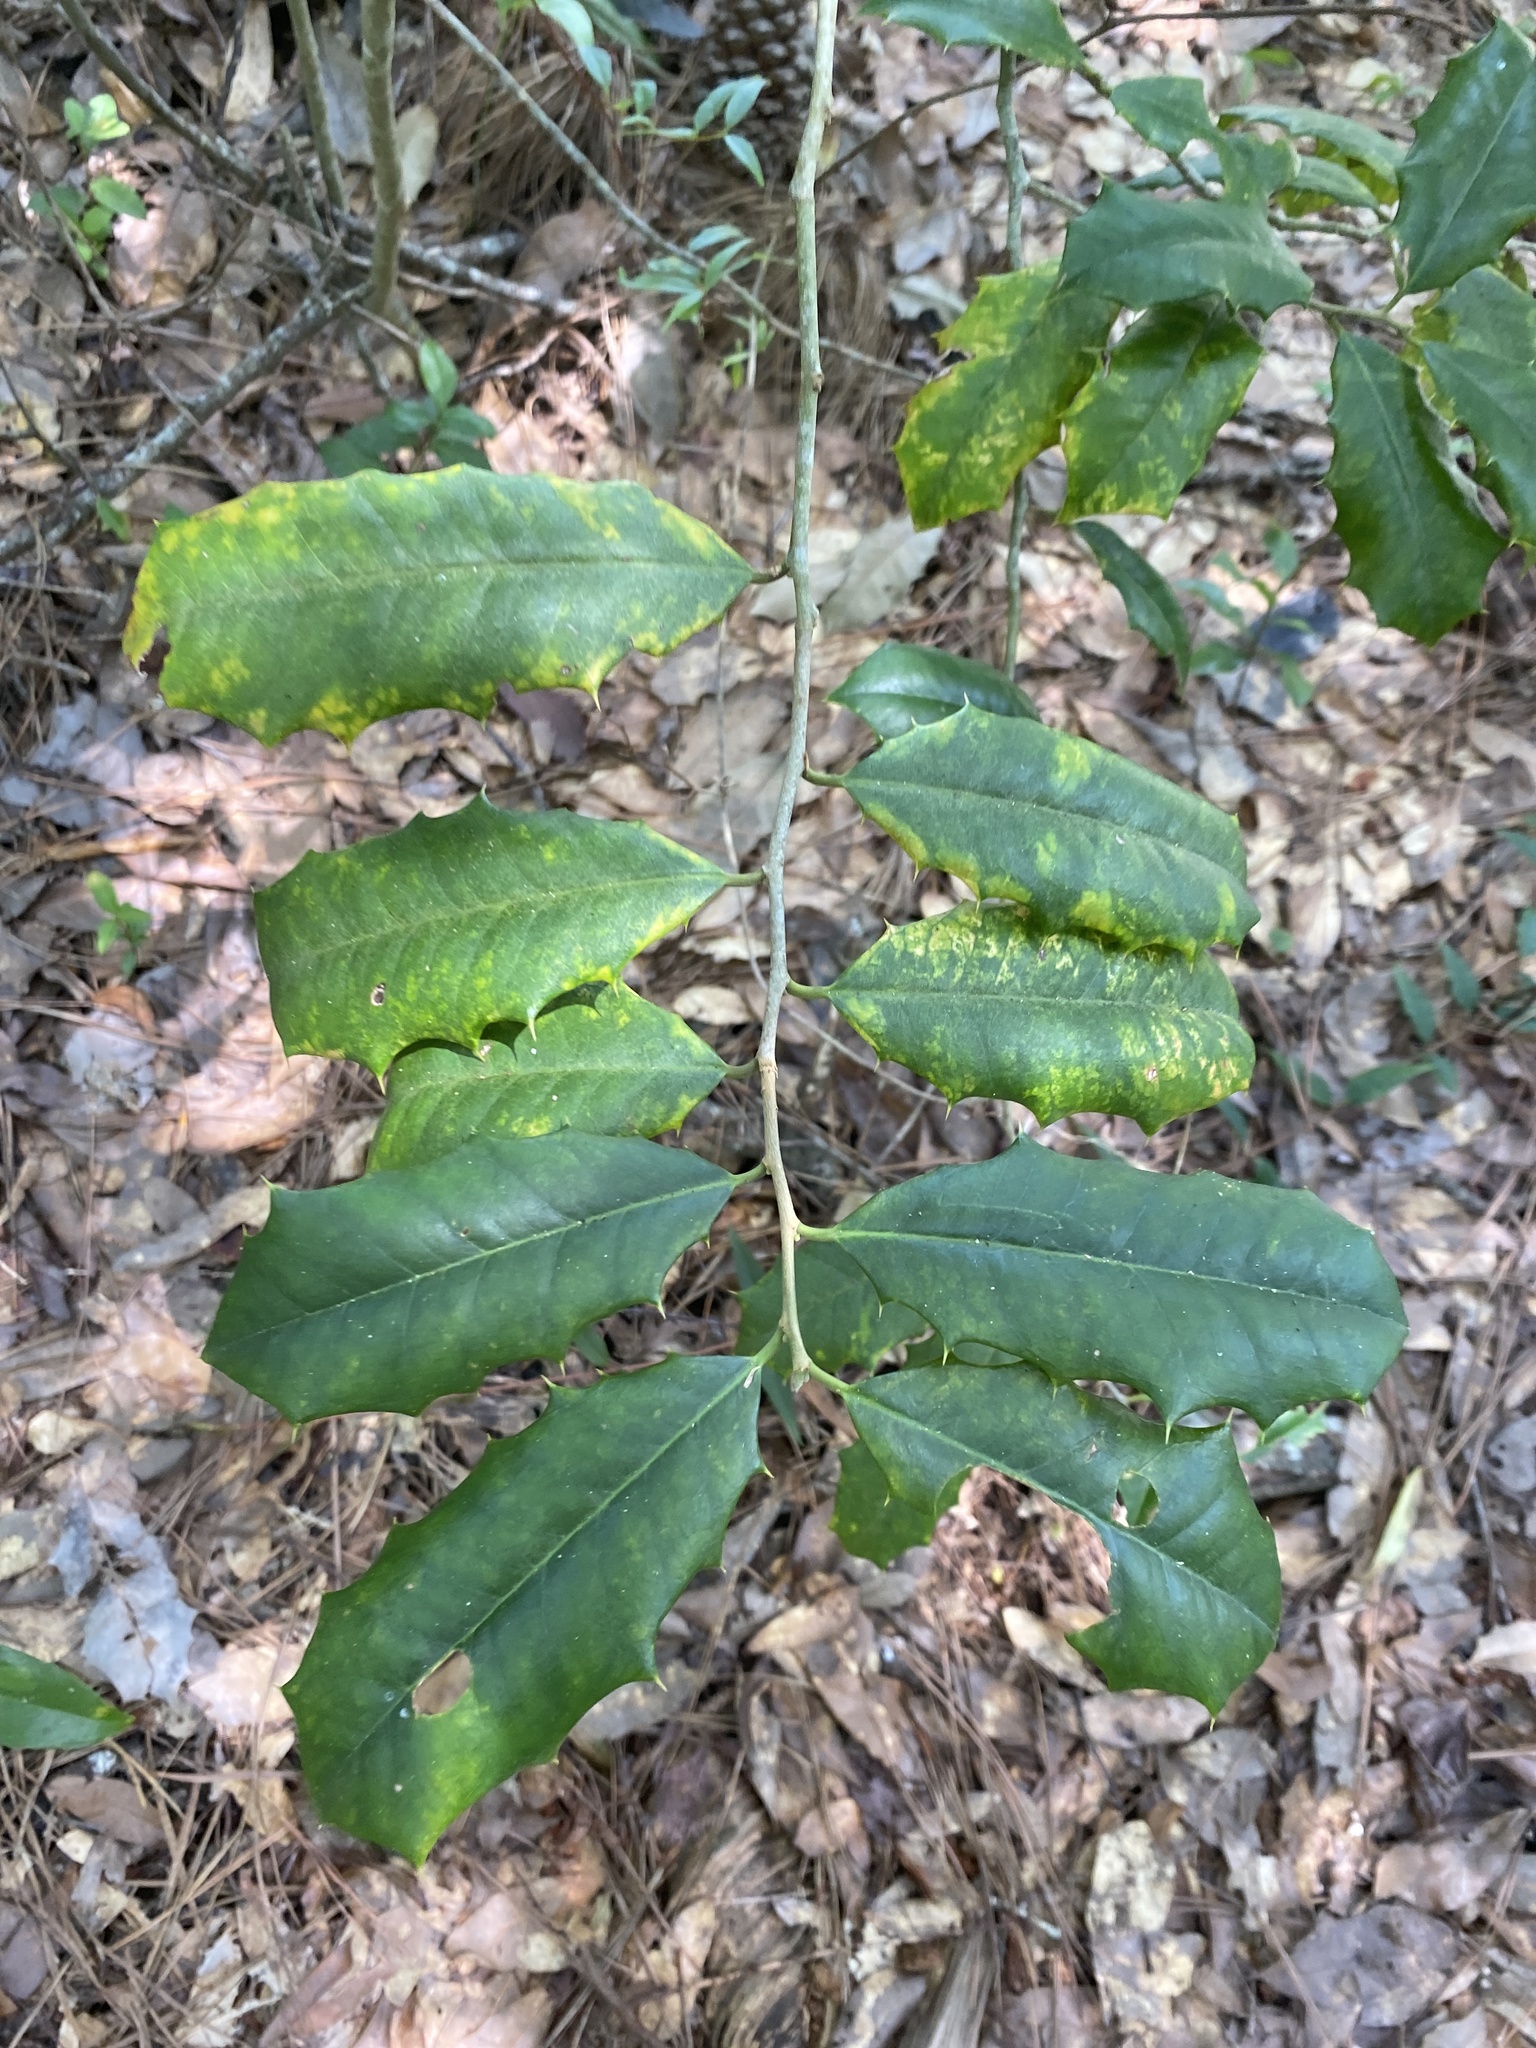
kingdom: Plantae
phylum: Tracheophyta
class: Magnoliopsida
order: Aquifoliales
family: Aquifoliaceae
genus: Ilex
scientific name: Ilex opaca
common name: American holly
